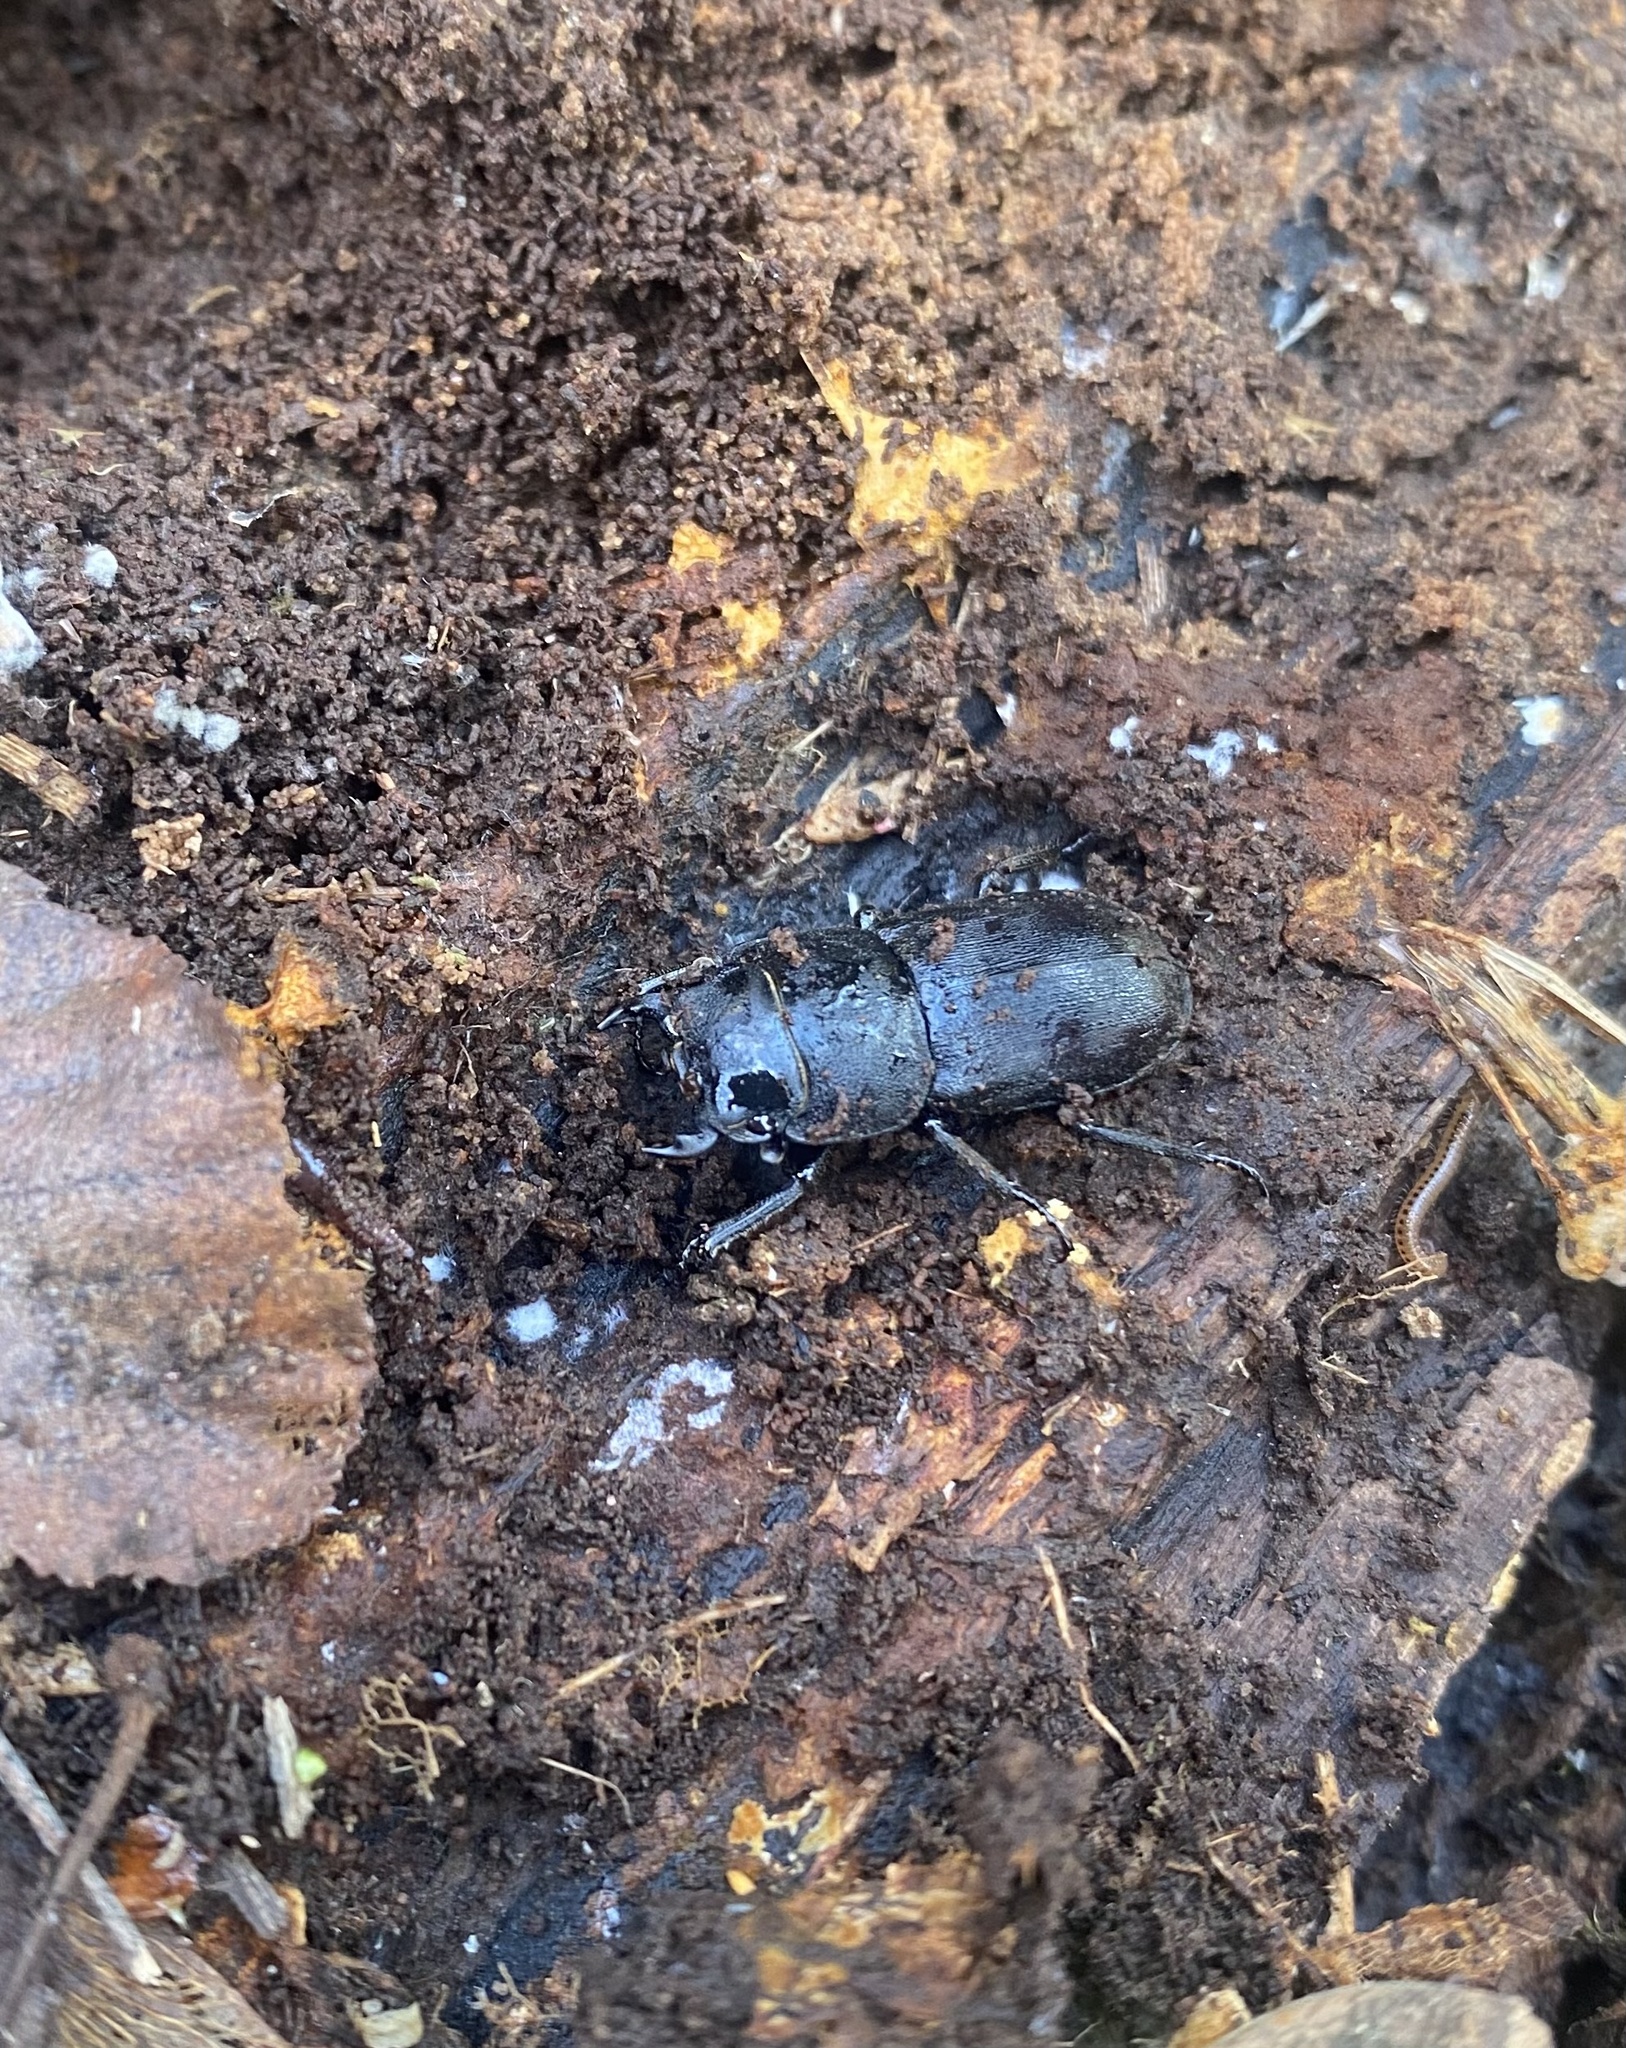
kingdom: Animalia
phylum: Arthropoda
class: Insecta
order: Coleoptera
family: Lucanidae
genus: Dorcus
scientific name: Dorcus parallelipipedus
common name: Lesser stag beetle
